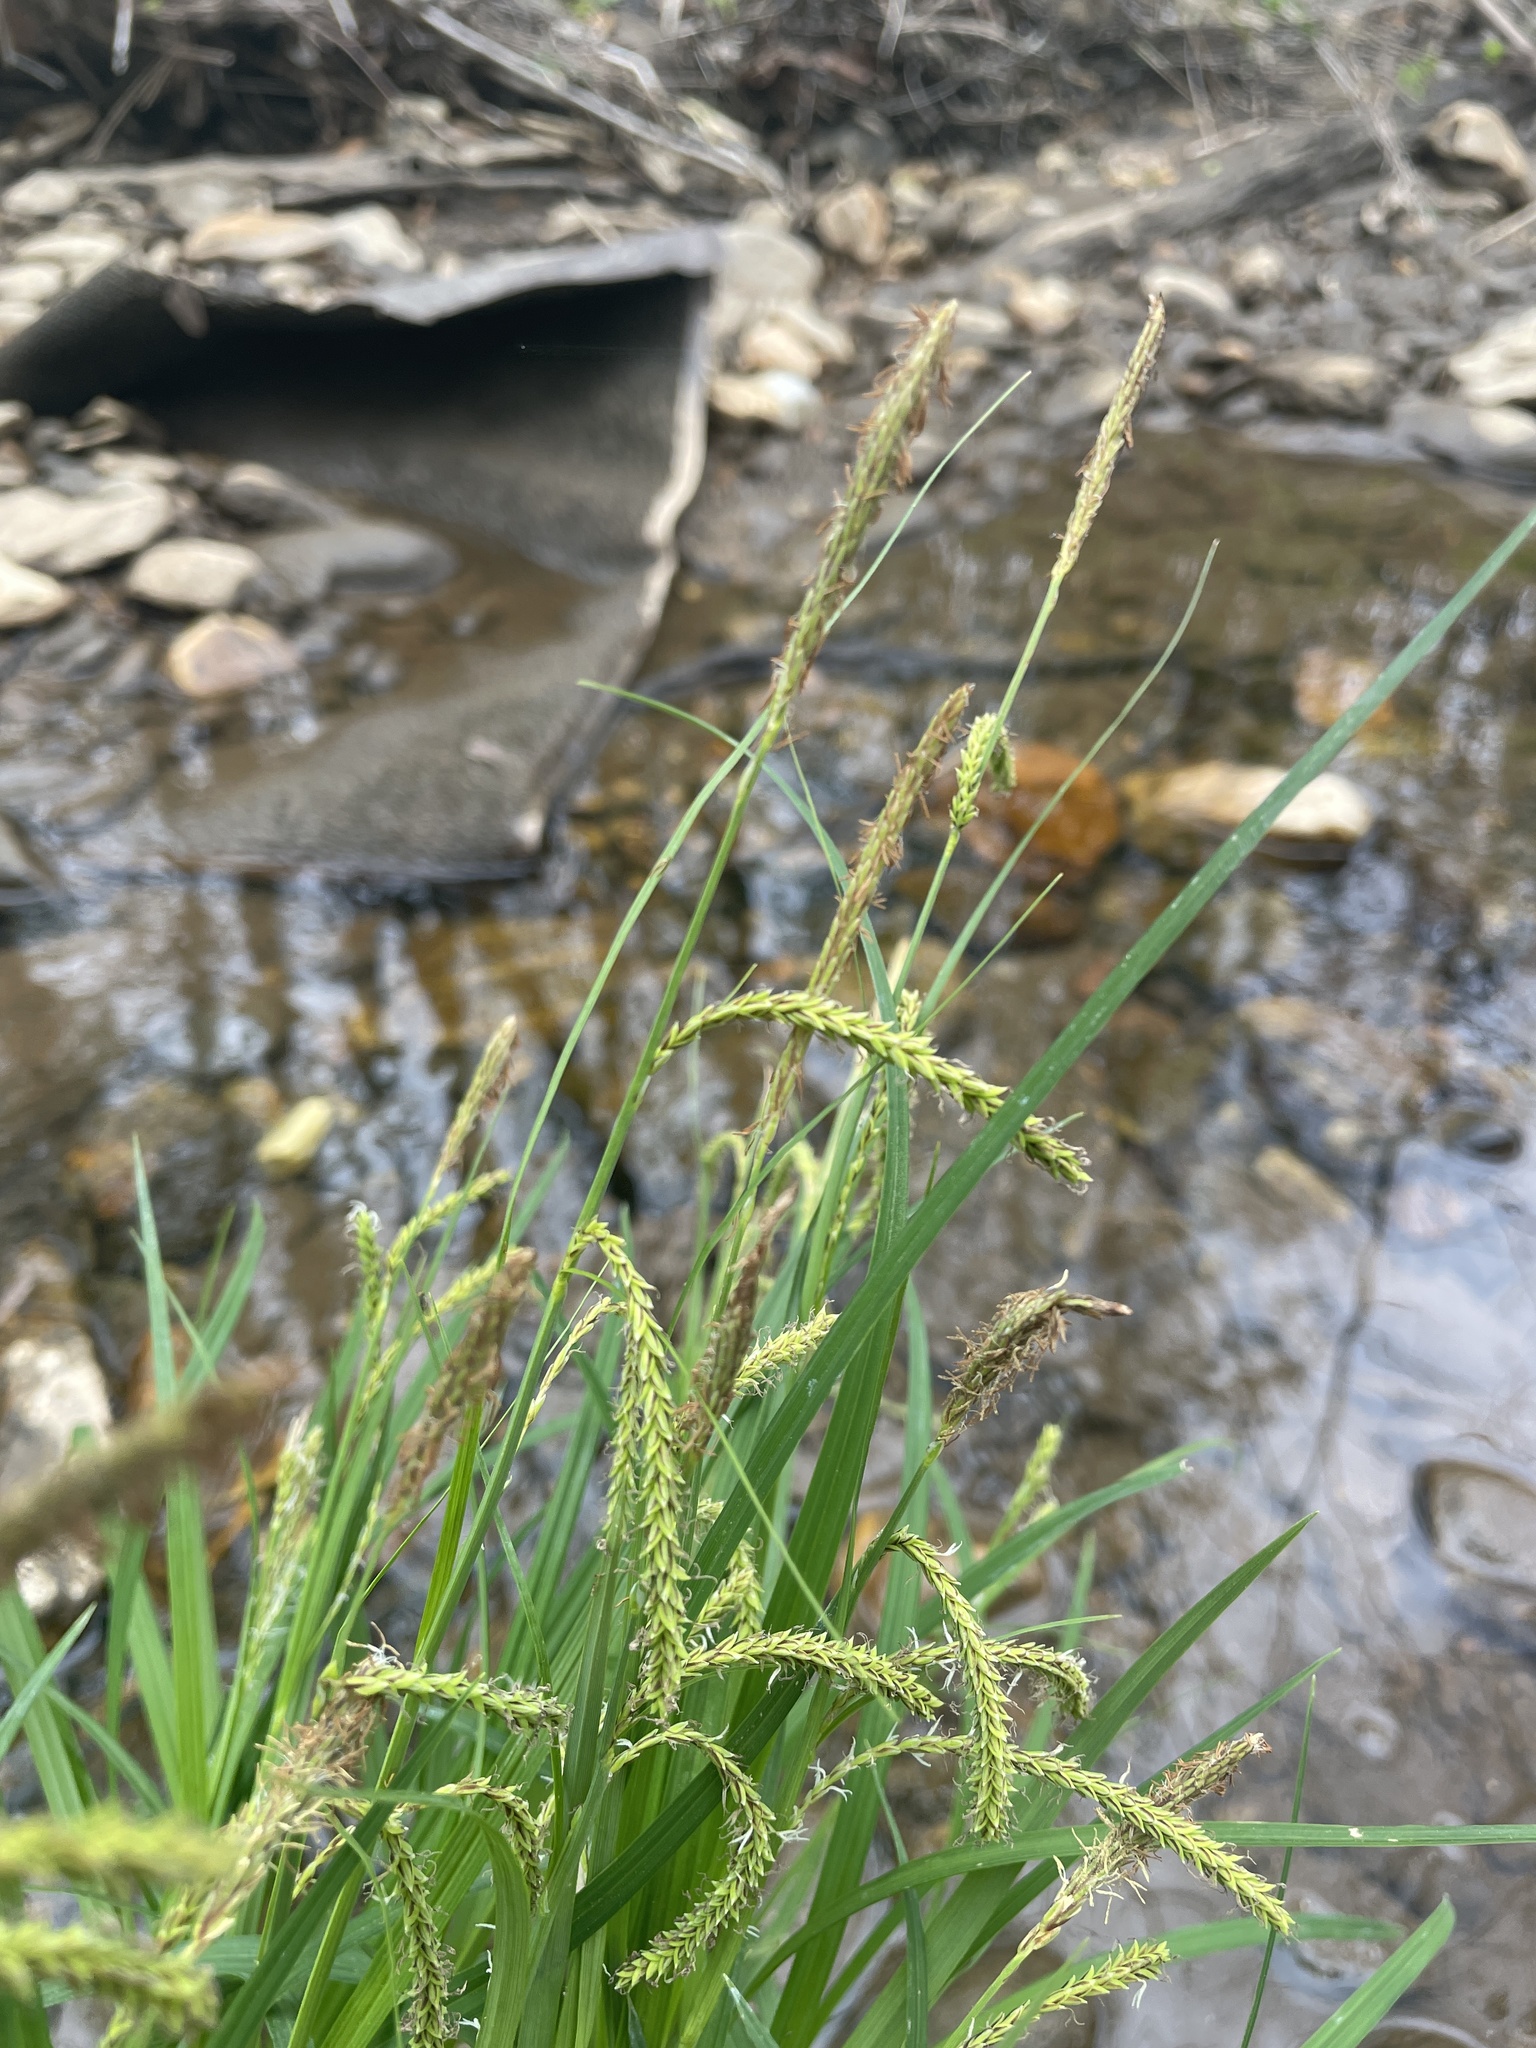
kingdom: Plantae
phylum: Tracheophyta
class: Liliopsida
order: Poales
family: Cyperaceae
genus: Carex
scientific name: Carex torta
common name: Twisted sedge
